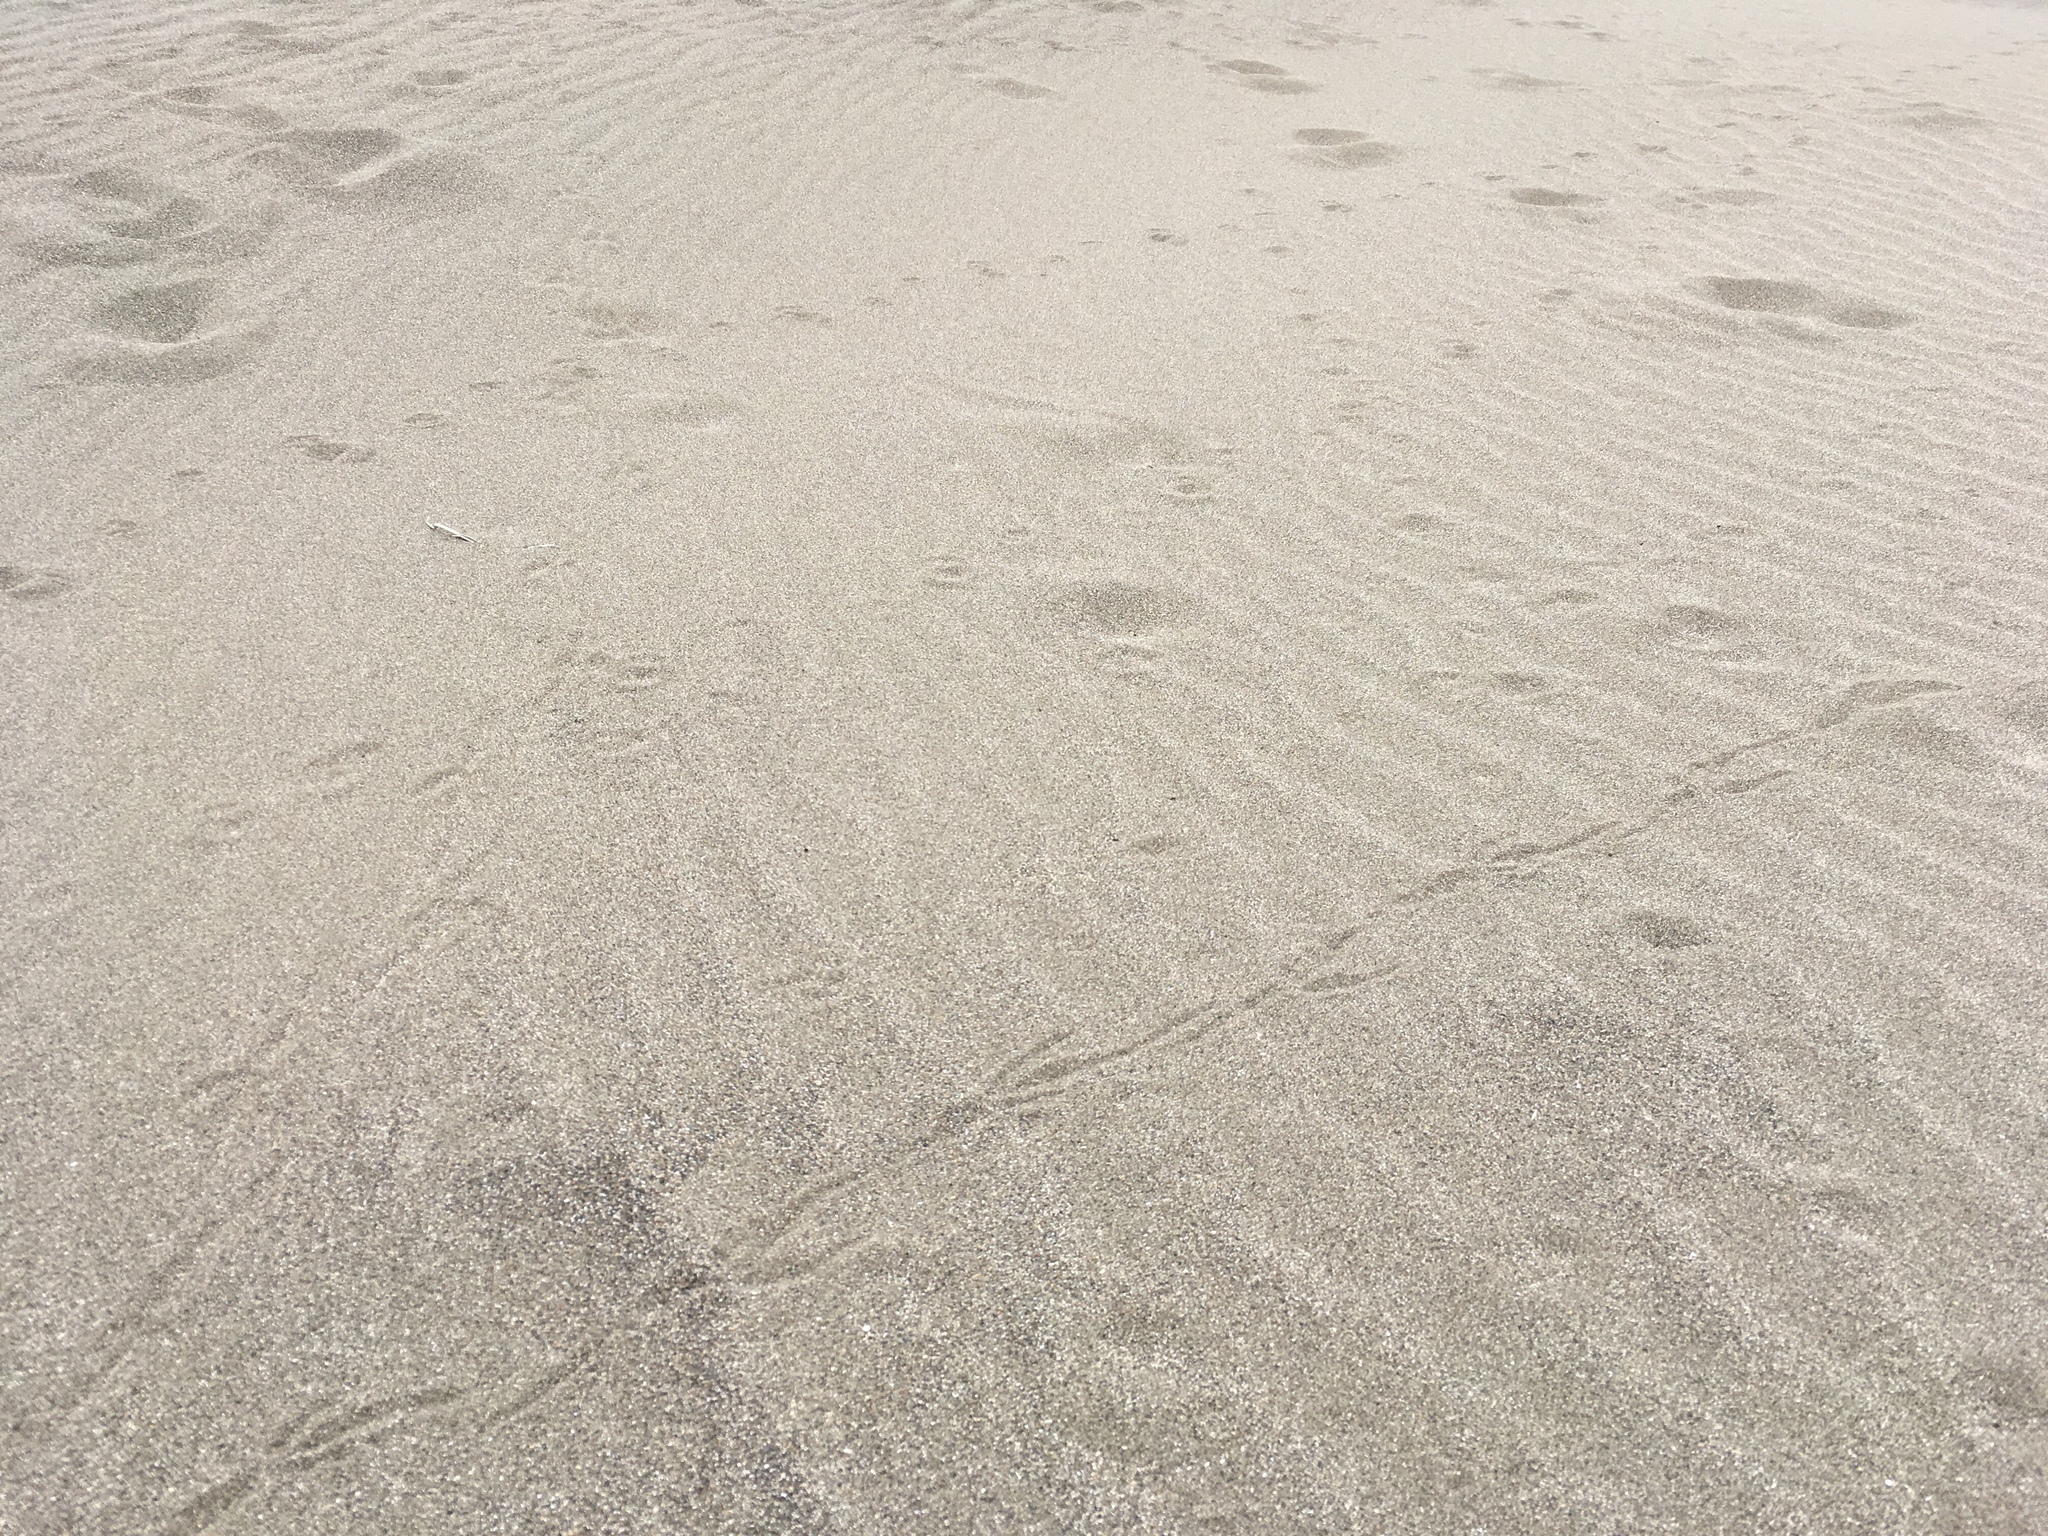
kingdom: Animalia
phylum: Chordata
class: Aves
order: Passeriformes
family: Corvidae
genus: Corvus
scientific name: Corvus corax
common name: Common raven
